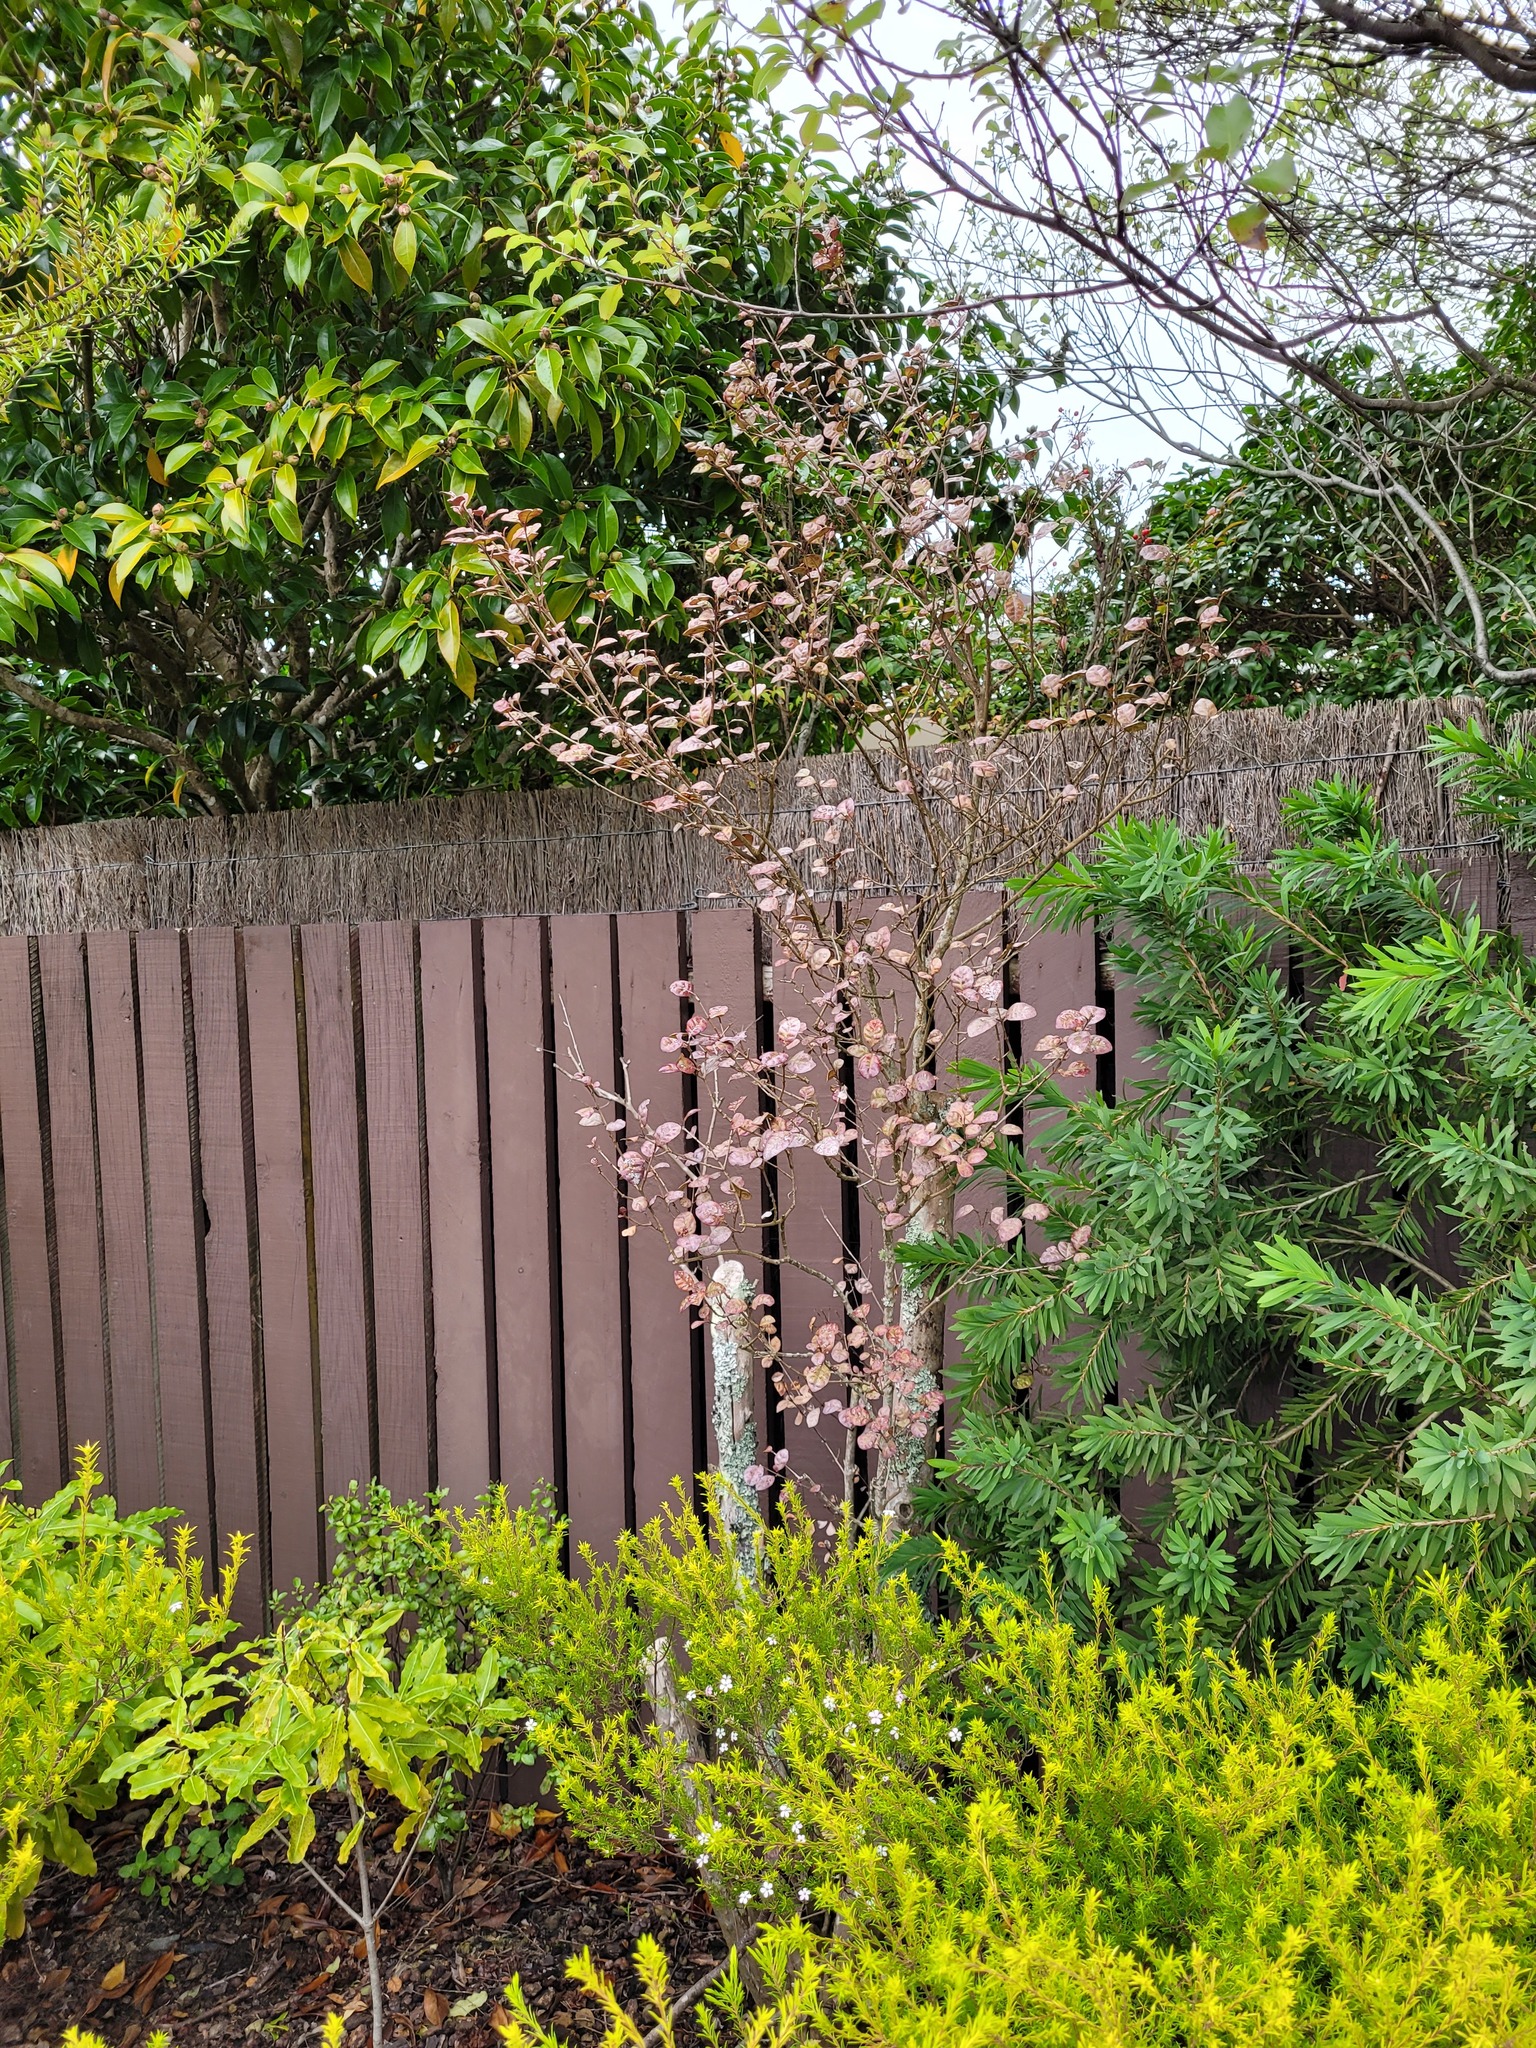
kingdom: Fungi
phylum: Basidiomycota
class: Pucciniomycetes
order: Pucciniales
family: Sphaerophragmiaceae
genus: Austropuccinia
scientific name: Austropuccinia psidii
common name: Myrtle rust
